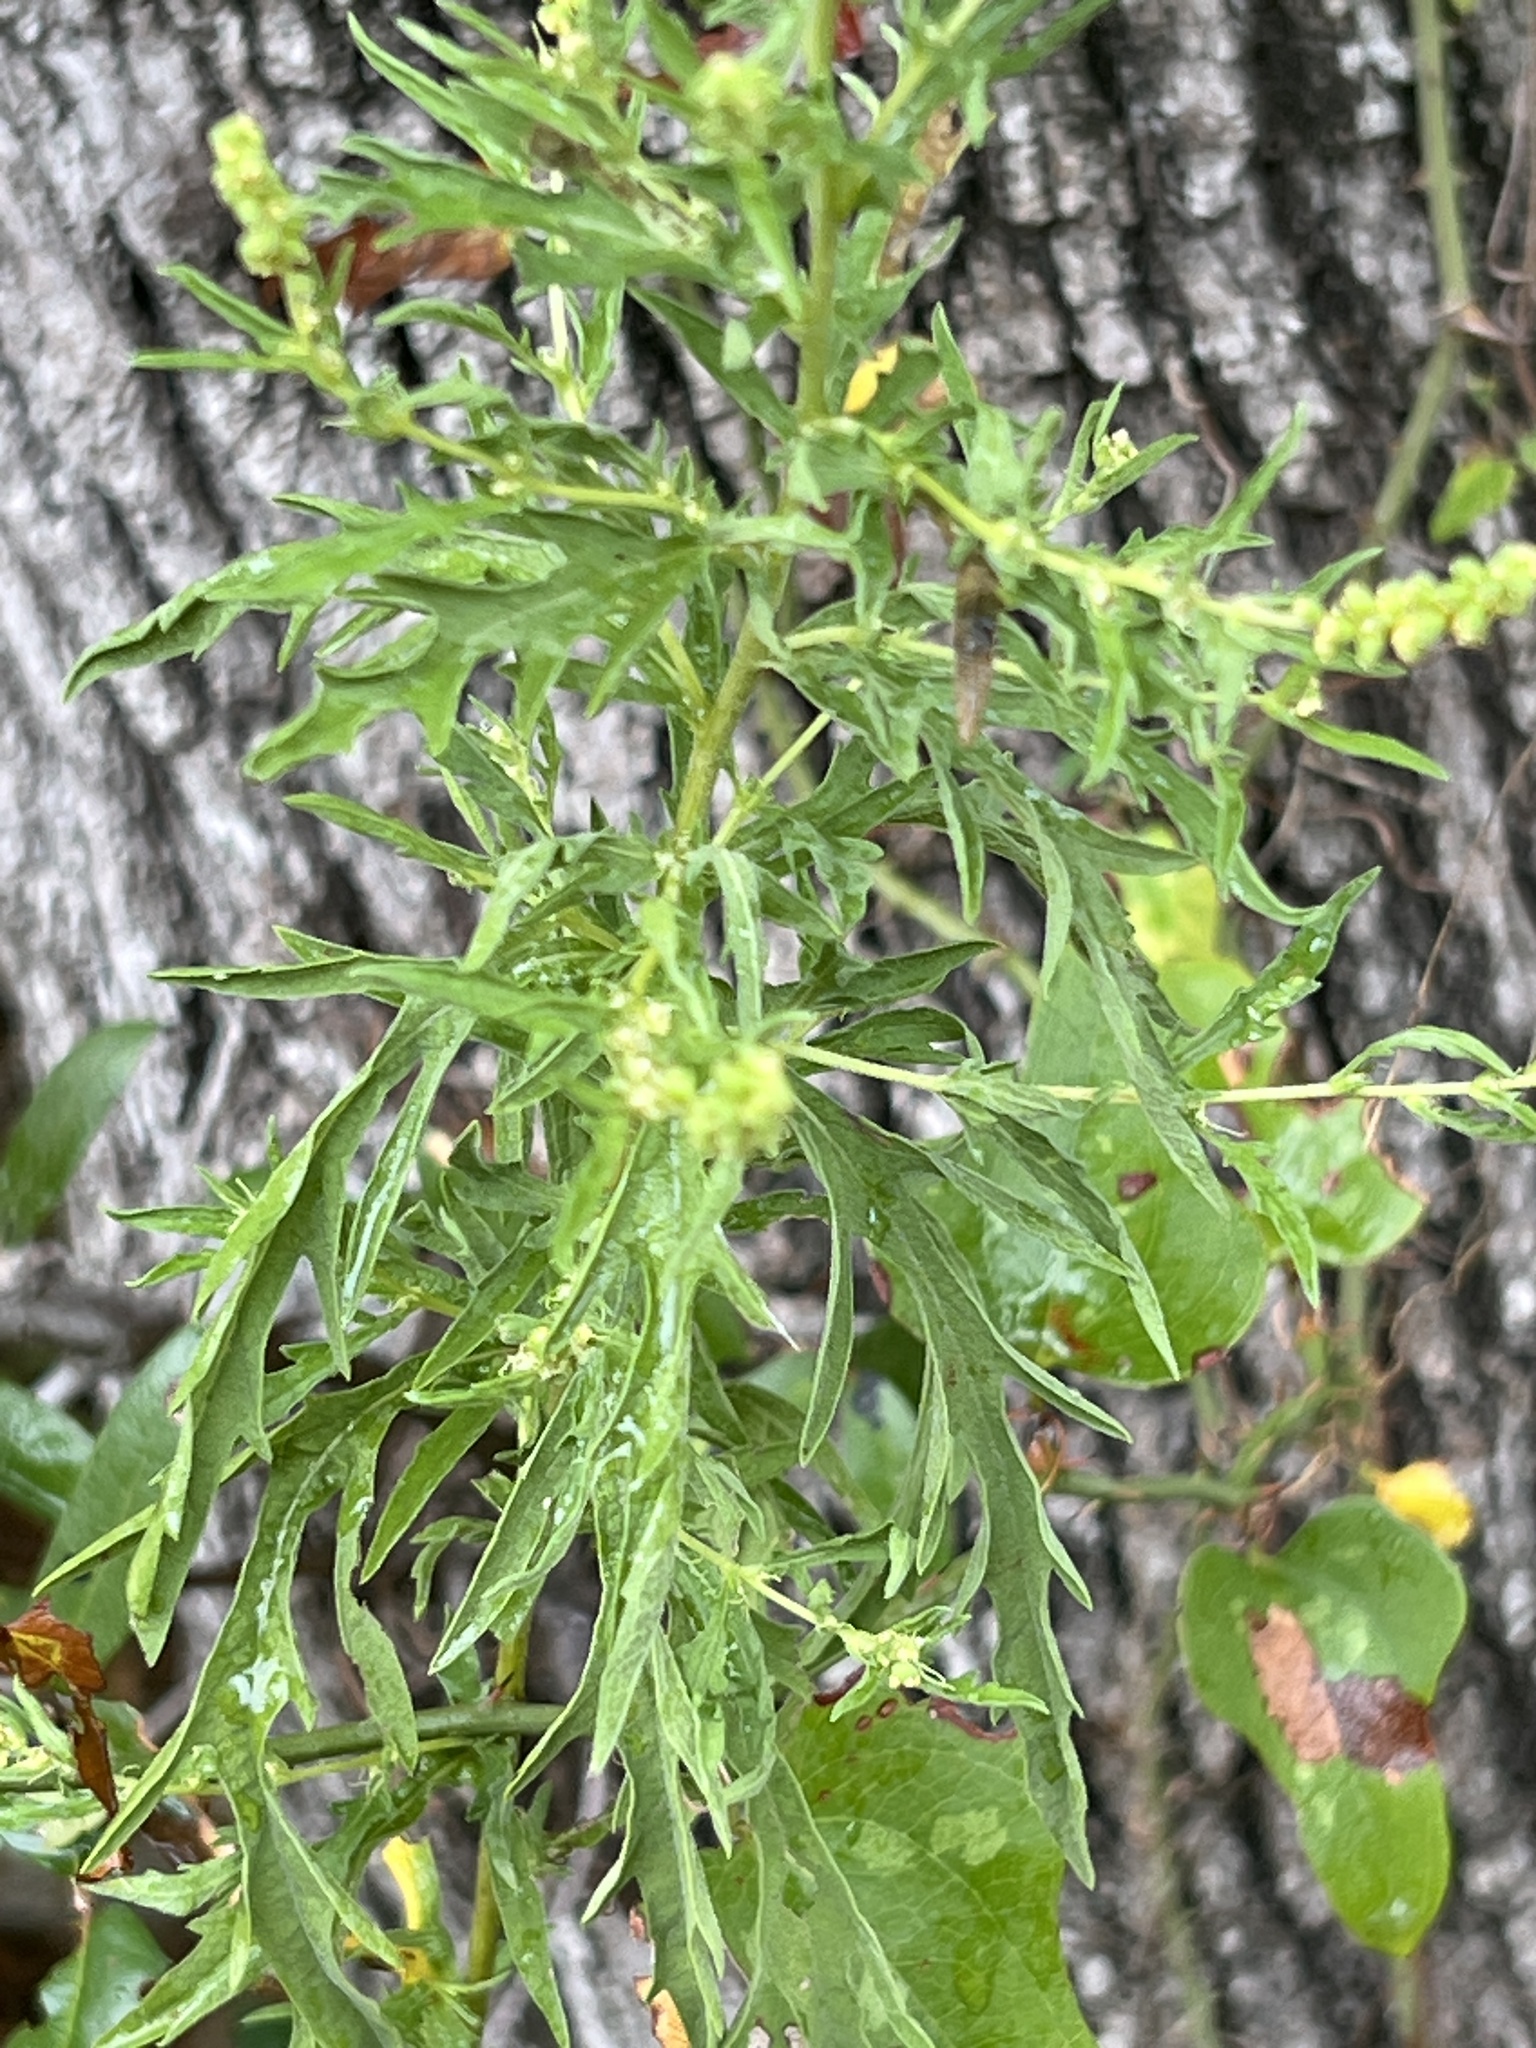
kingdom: Plantae
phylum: Tracheophyta
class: Magnoliopsida
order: Asterales
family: Asteraceae
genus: Ambrosia
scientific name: Ambrosia psilostachya
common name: Perennial ragweed
